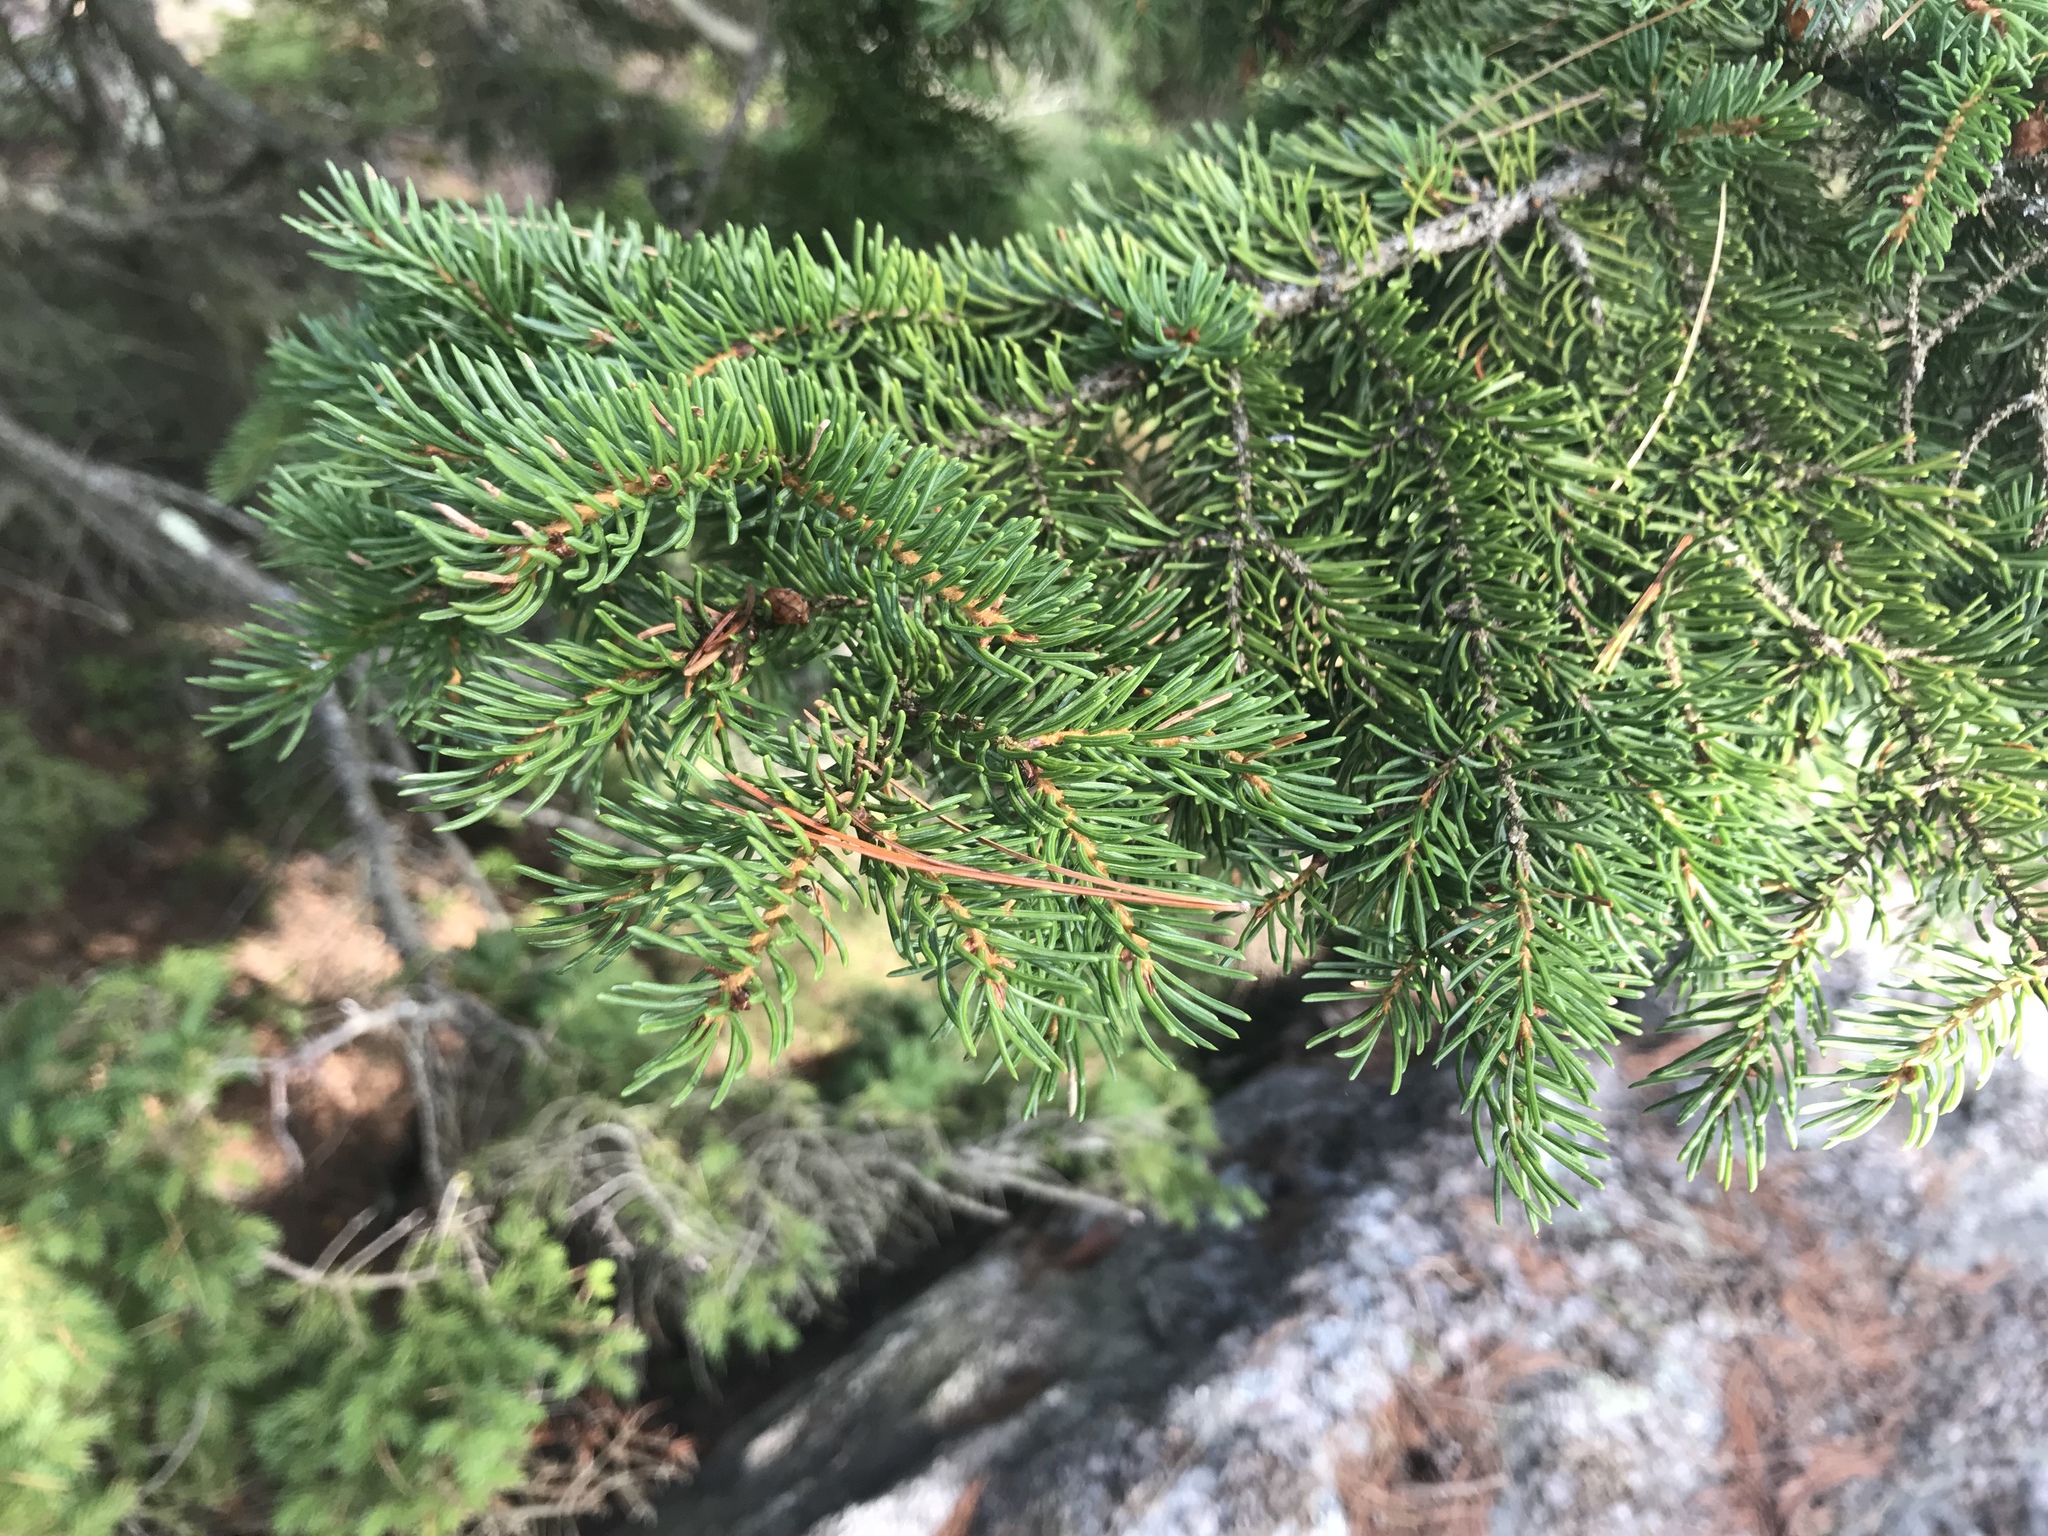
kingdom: Plantae
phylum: Tracheophyta
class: Pinopsida
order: Pinales
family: Pinaceae
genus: Picea
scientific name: Picea rubens
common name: Red spruce
